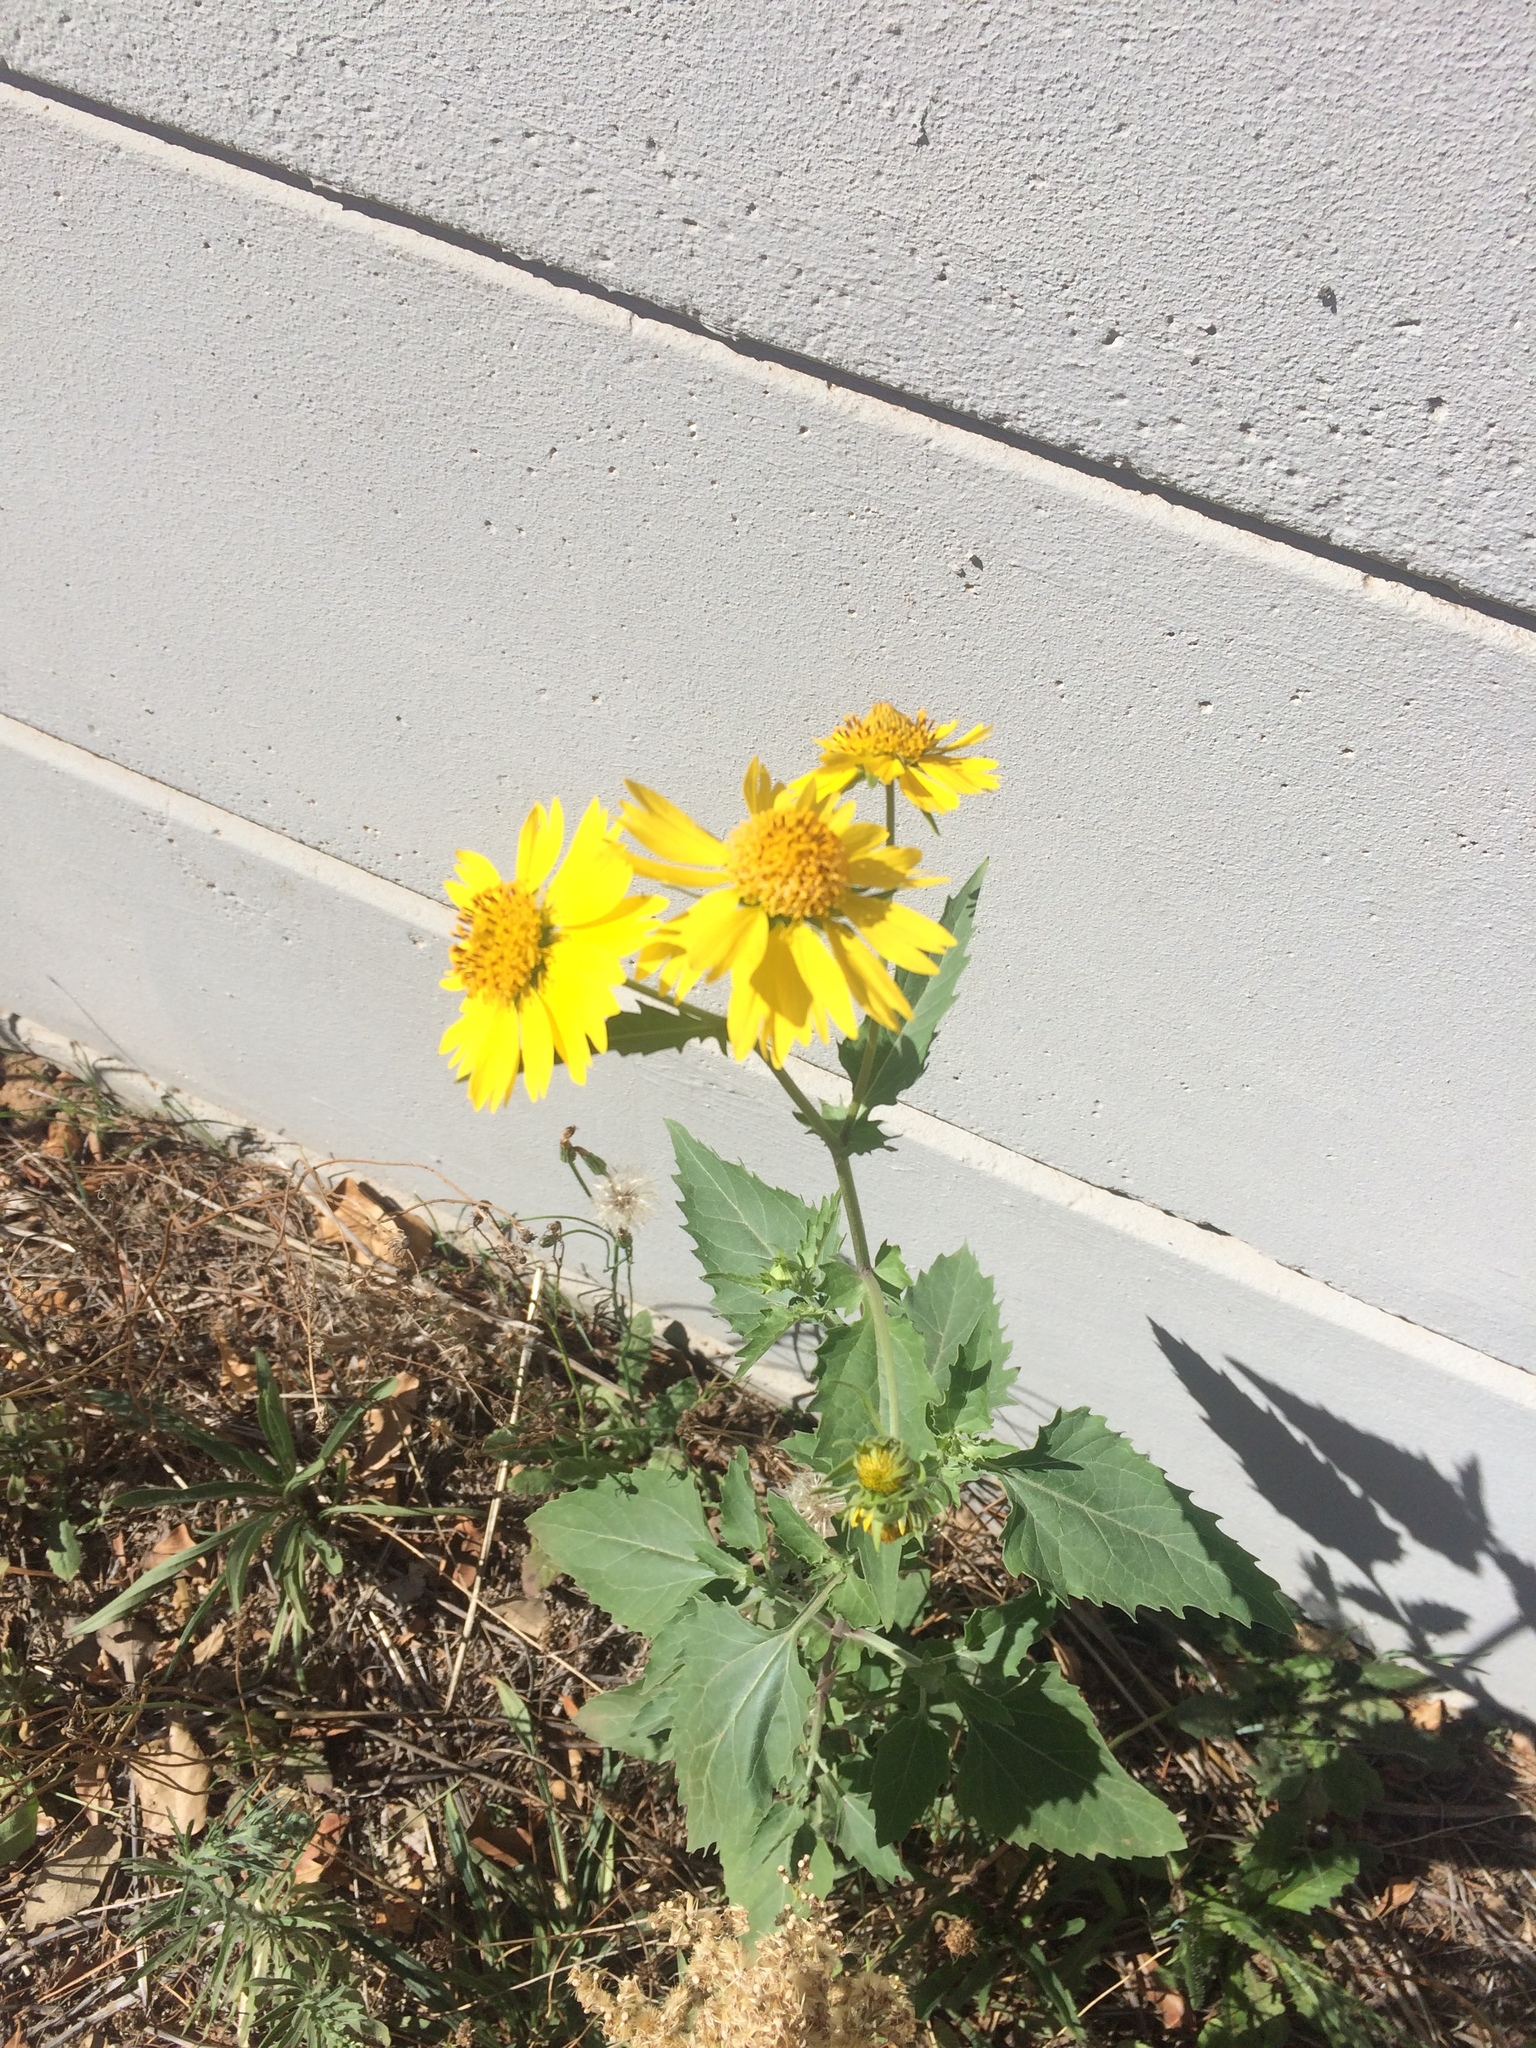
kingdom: Plantae
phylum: Tracheophyta
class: Magnoliopsida
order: Asterales
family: Asteraceae
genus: Verbesina
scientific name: Verbesina encelioides
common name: Golden crownbeard
